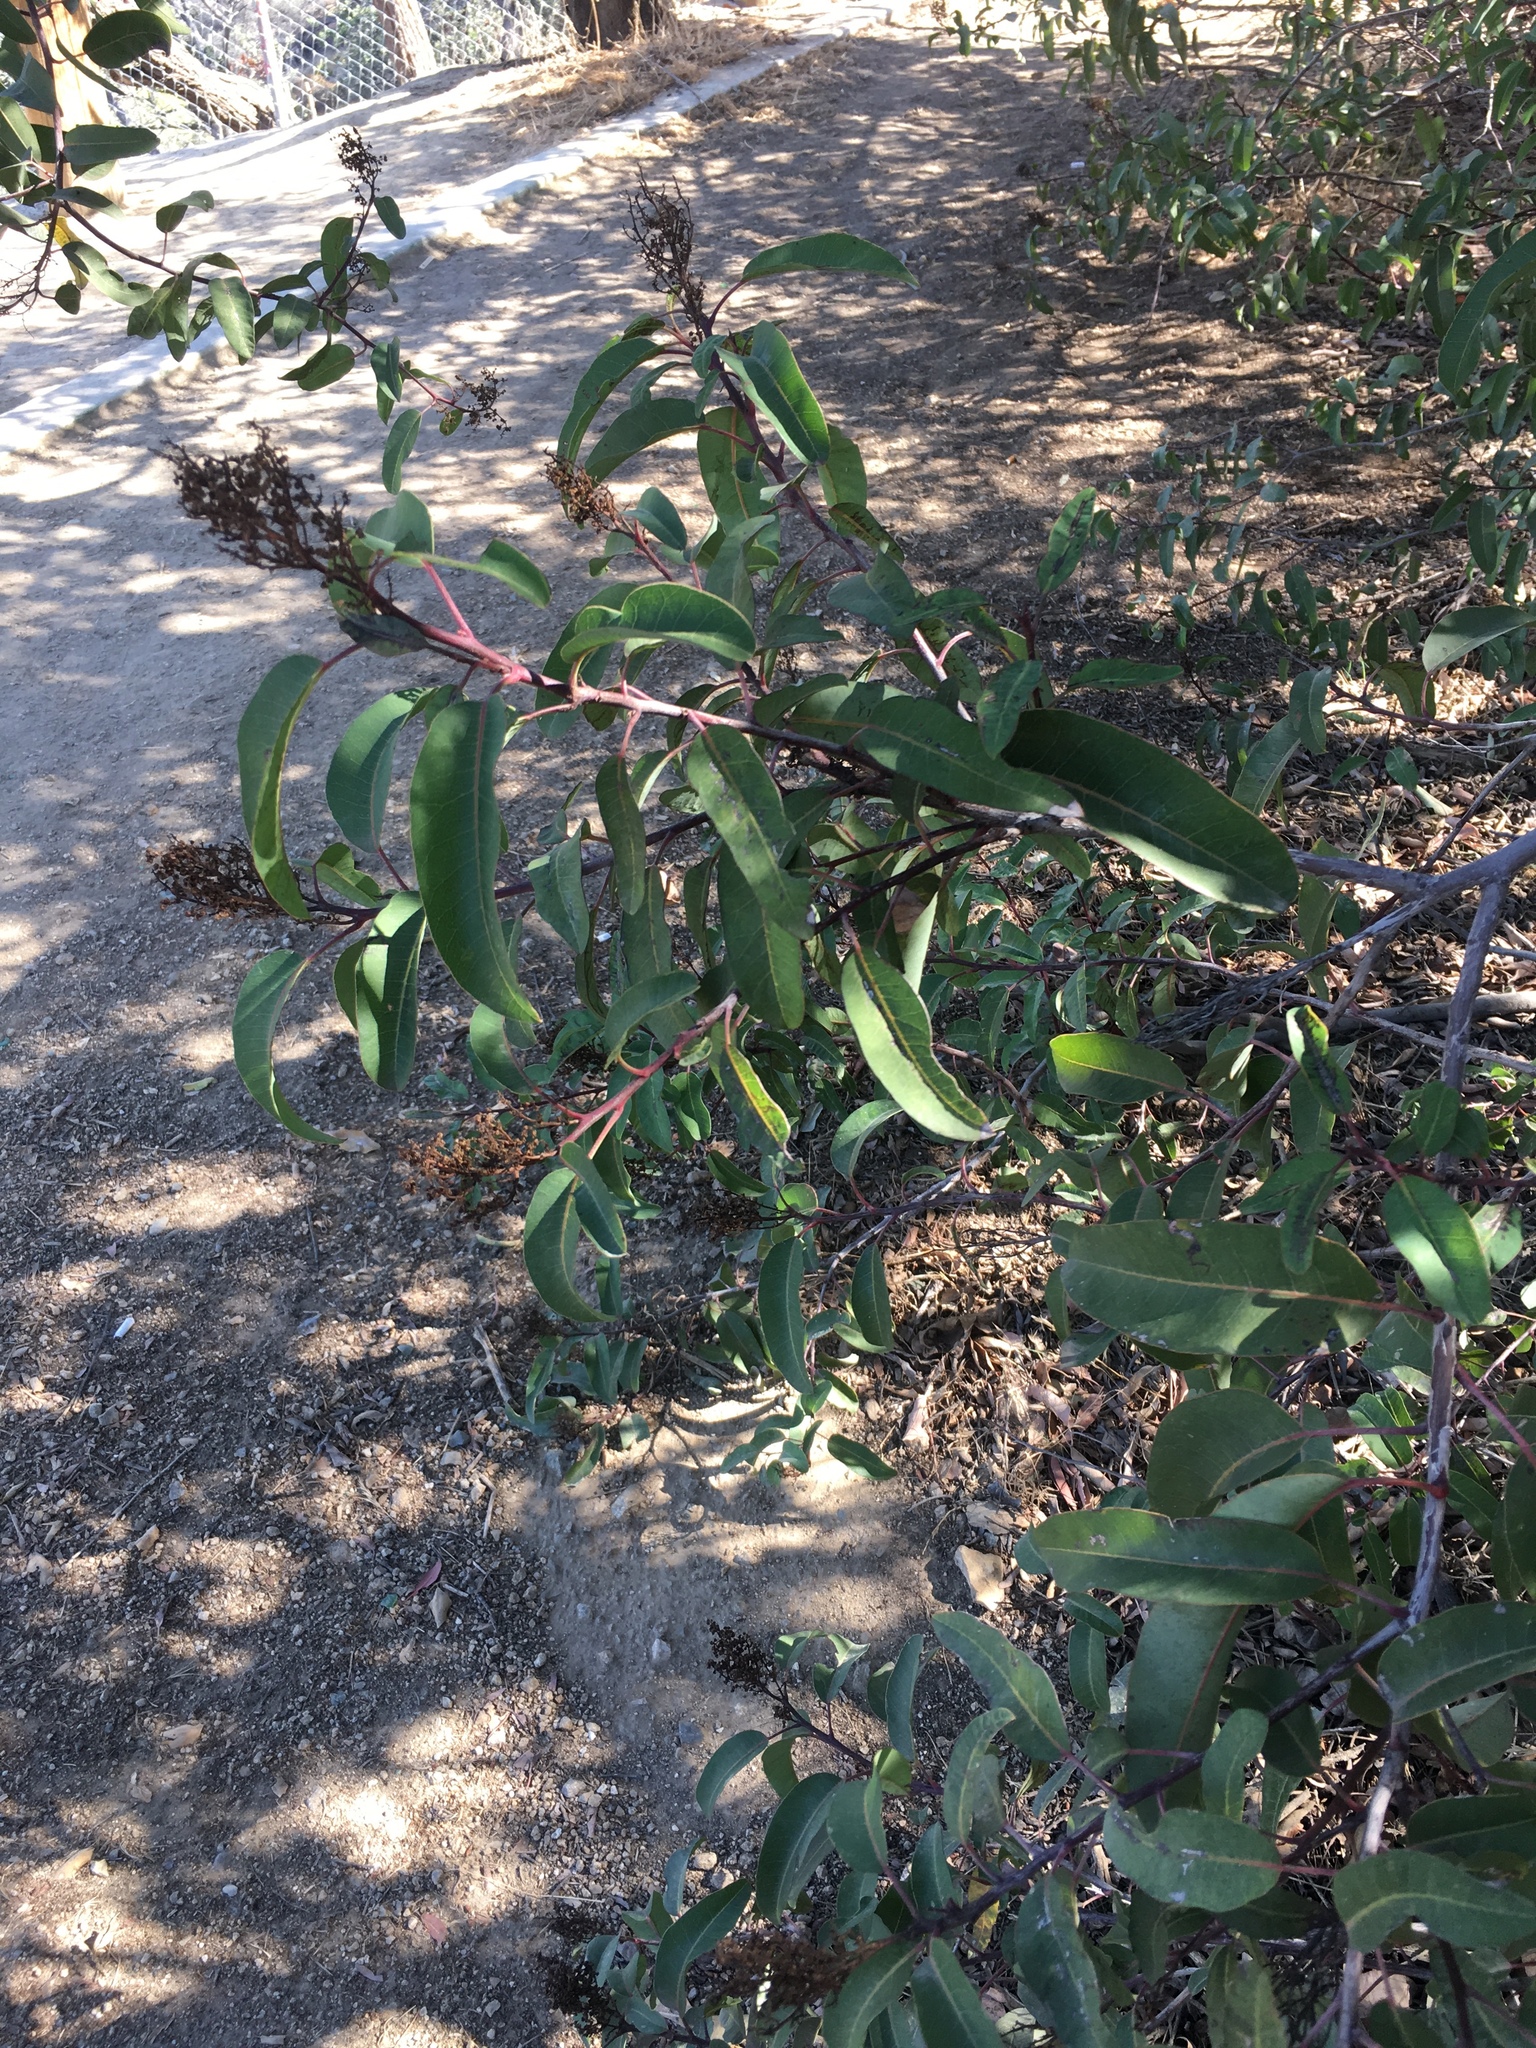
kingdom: Plantae
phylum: Tracheophyta
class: Magnoliopsida
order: Sapindales
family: Anacardiaceae
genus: Malosma
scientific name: Malosma laurina
